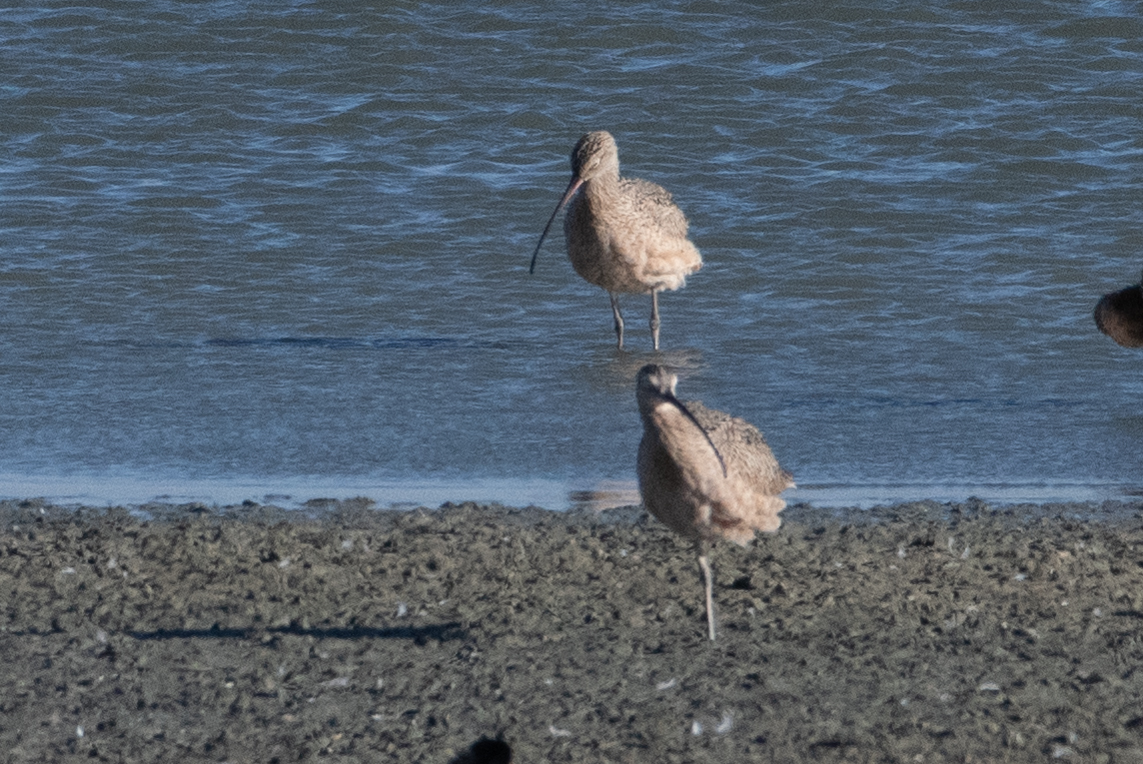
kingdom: Animalia
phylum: Chordata
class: Aves
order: Charadriiformes
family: Scolopacidae
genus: Numenius
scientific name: Numenius americanus
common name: Long-billed curlew
